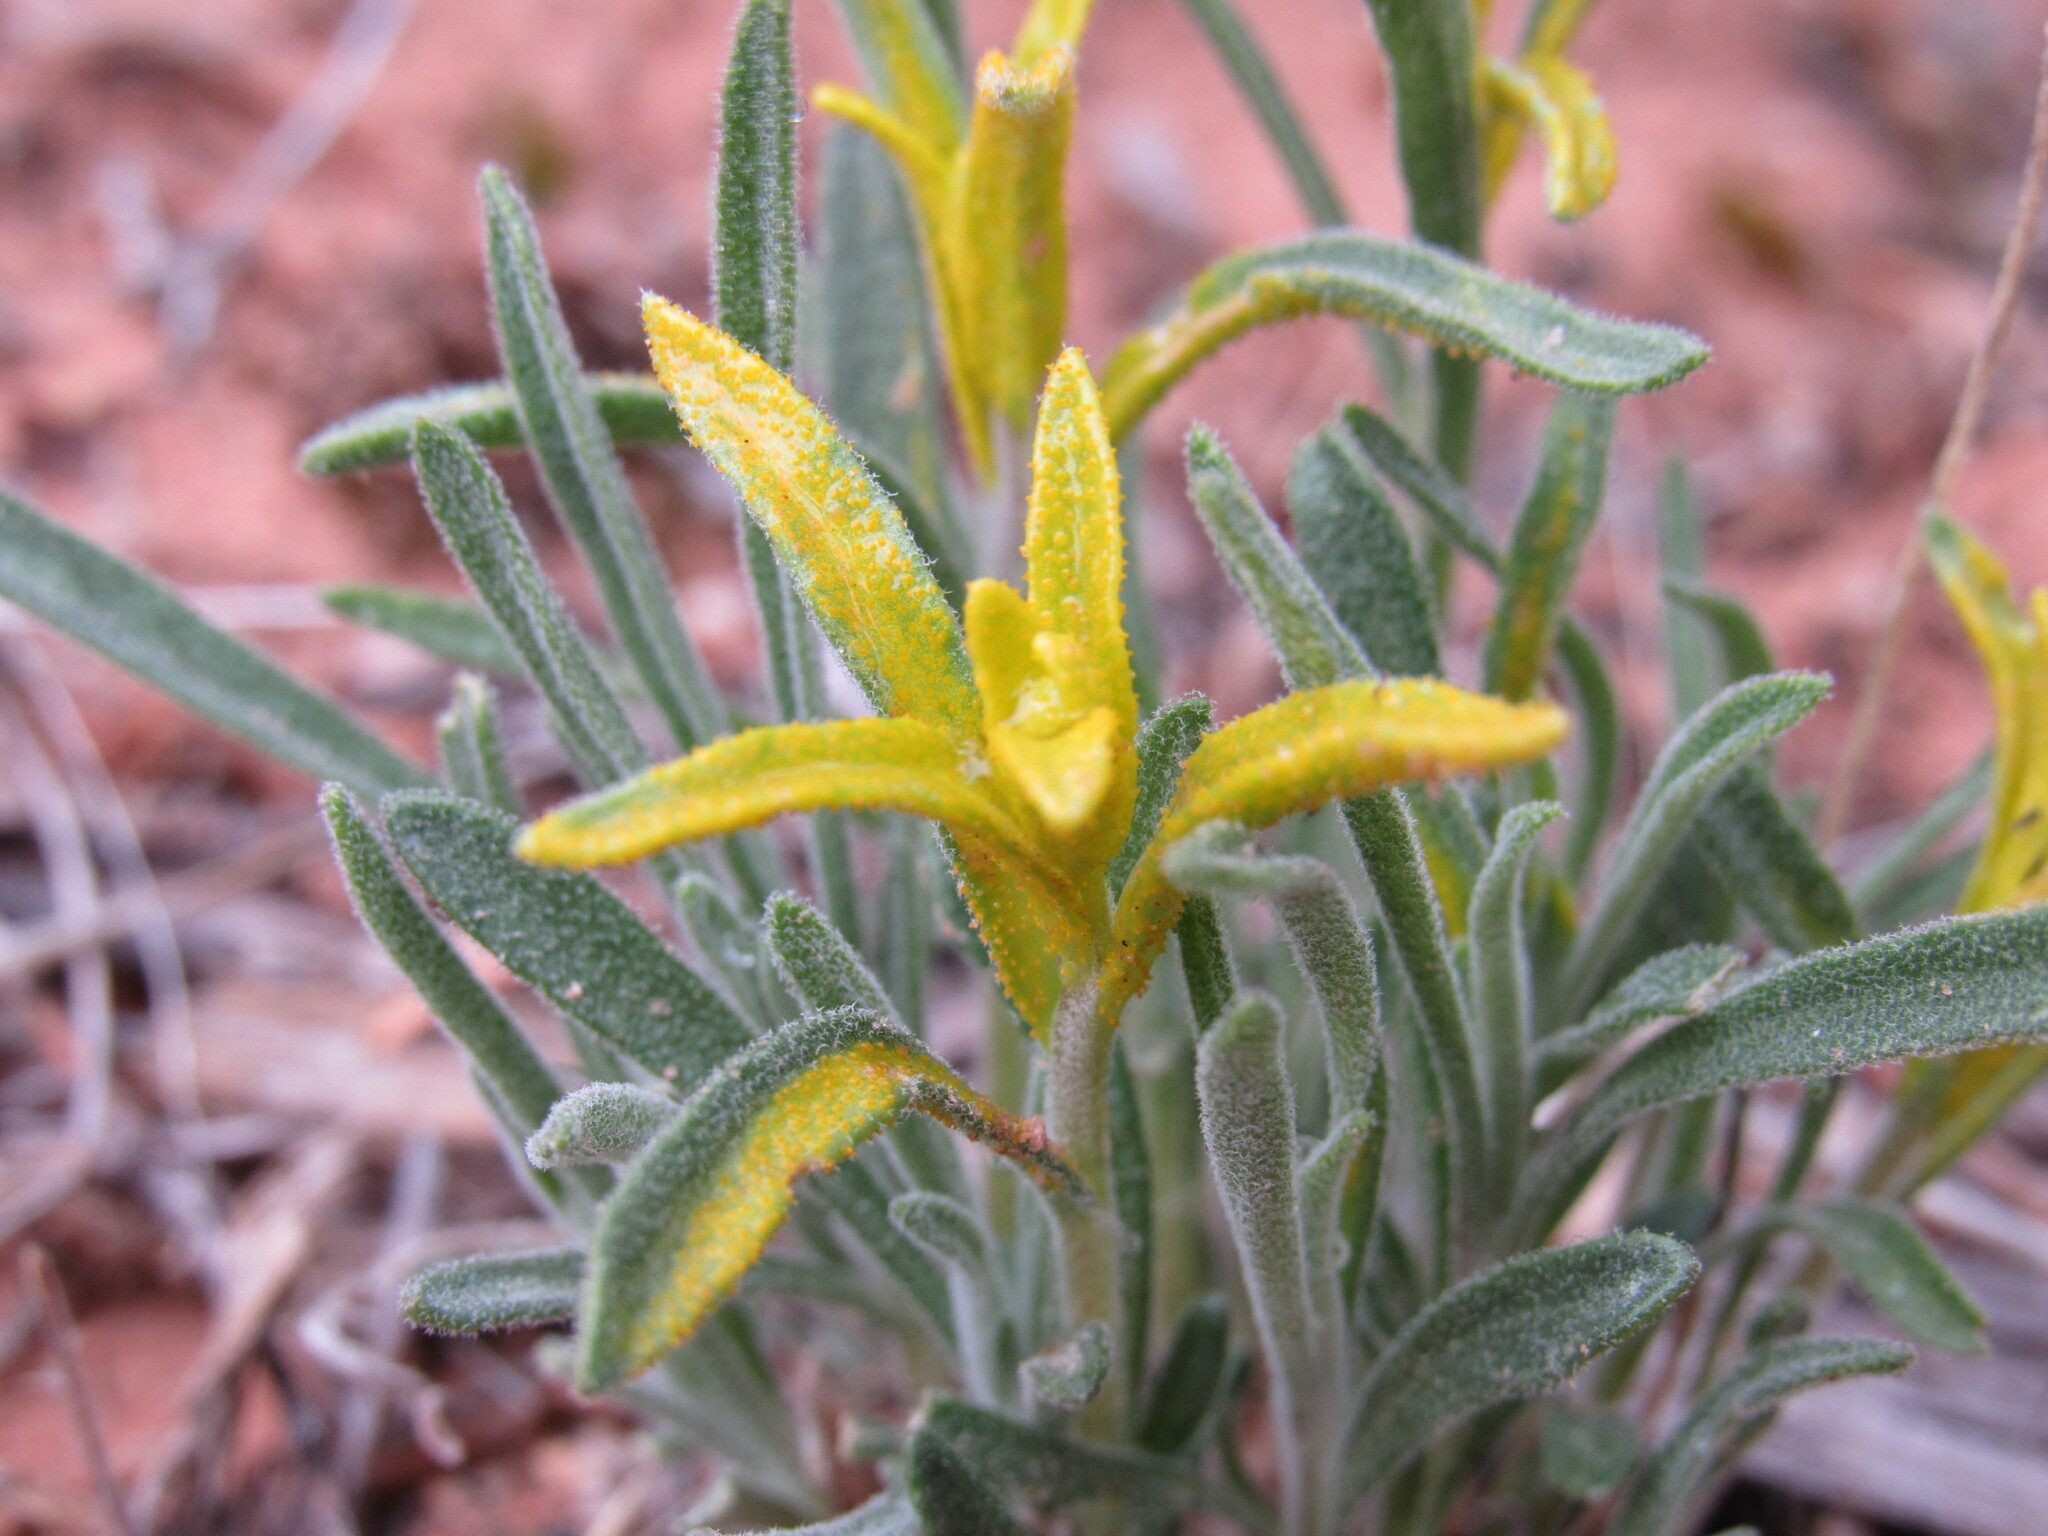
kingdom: Fungi
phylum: Basidiomycota
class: Pucciniomycetes
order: Pucciniales
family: Pucciniaceae
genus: Puccinia
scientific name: Puccinia monoica
